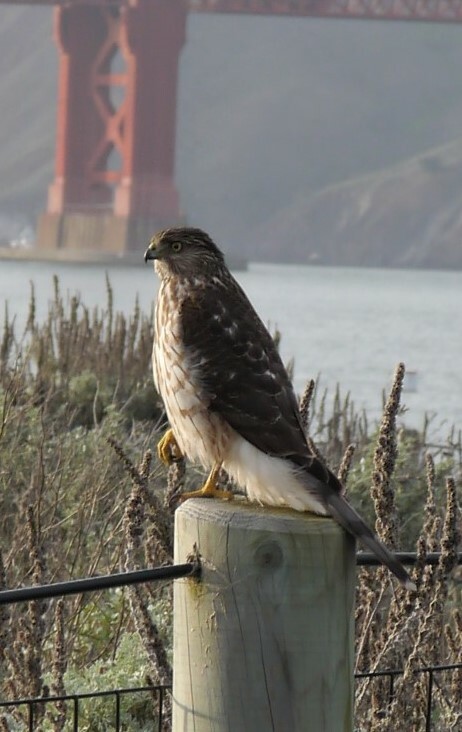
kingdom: Animalia
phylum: Chordata
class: Aves
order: Accipitriformes
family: Accipitridae
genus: Accipiter
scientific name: Accipiter cooperii
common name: Cooper's hawk
